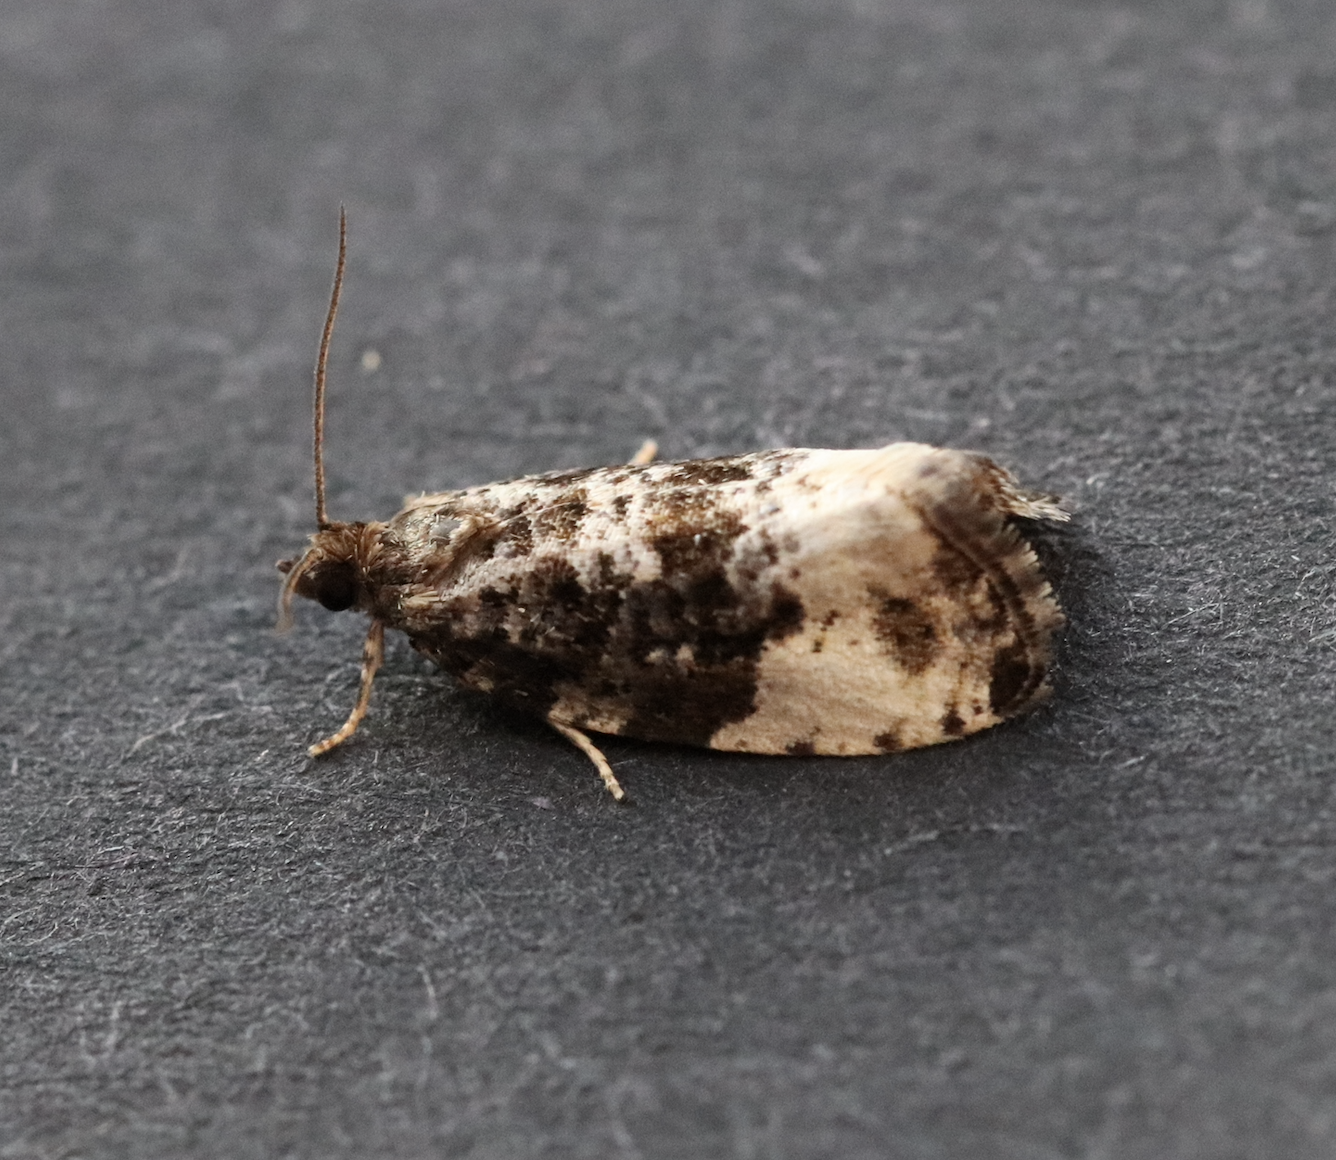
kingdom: Animalia
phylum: Arthropoda
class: Insecta
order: Lepidoptera
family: Tortricidae
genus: Hedya
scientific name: Hedya pruniana
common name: Plum tortrix
